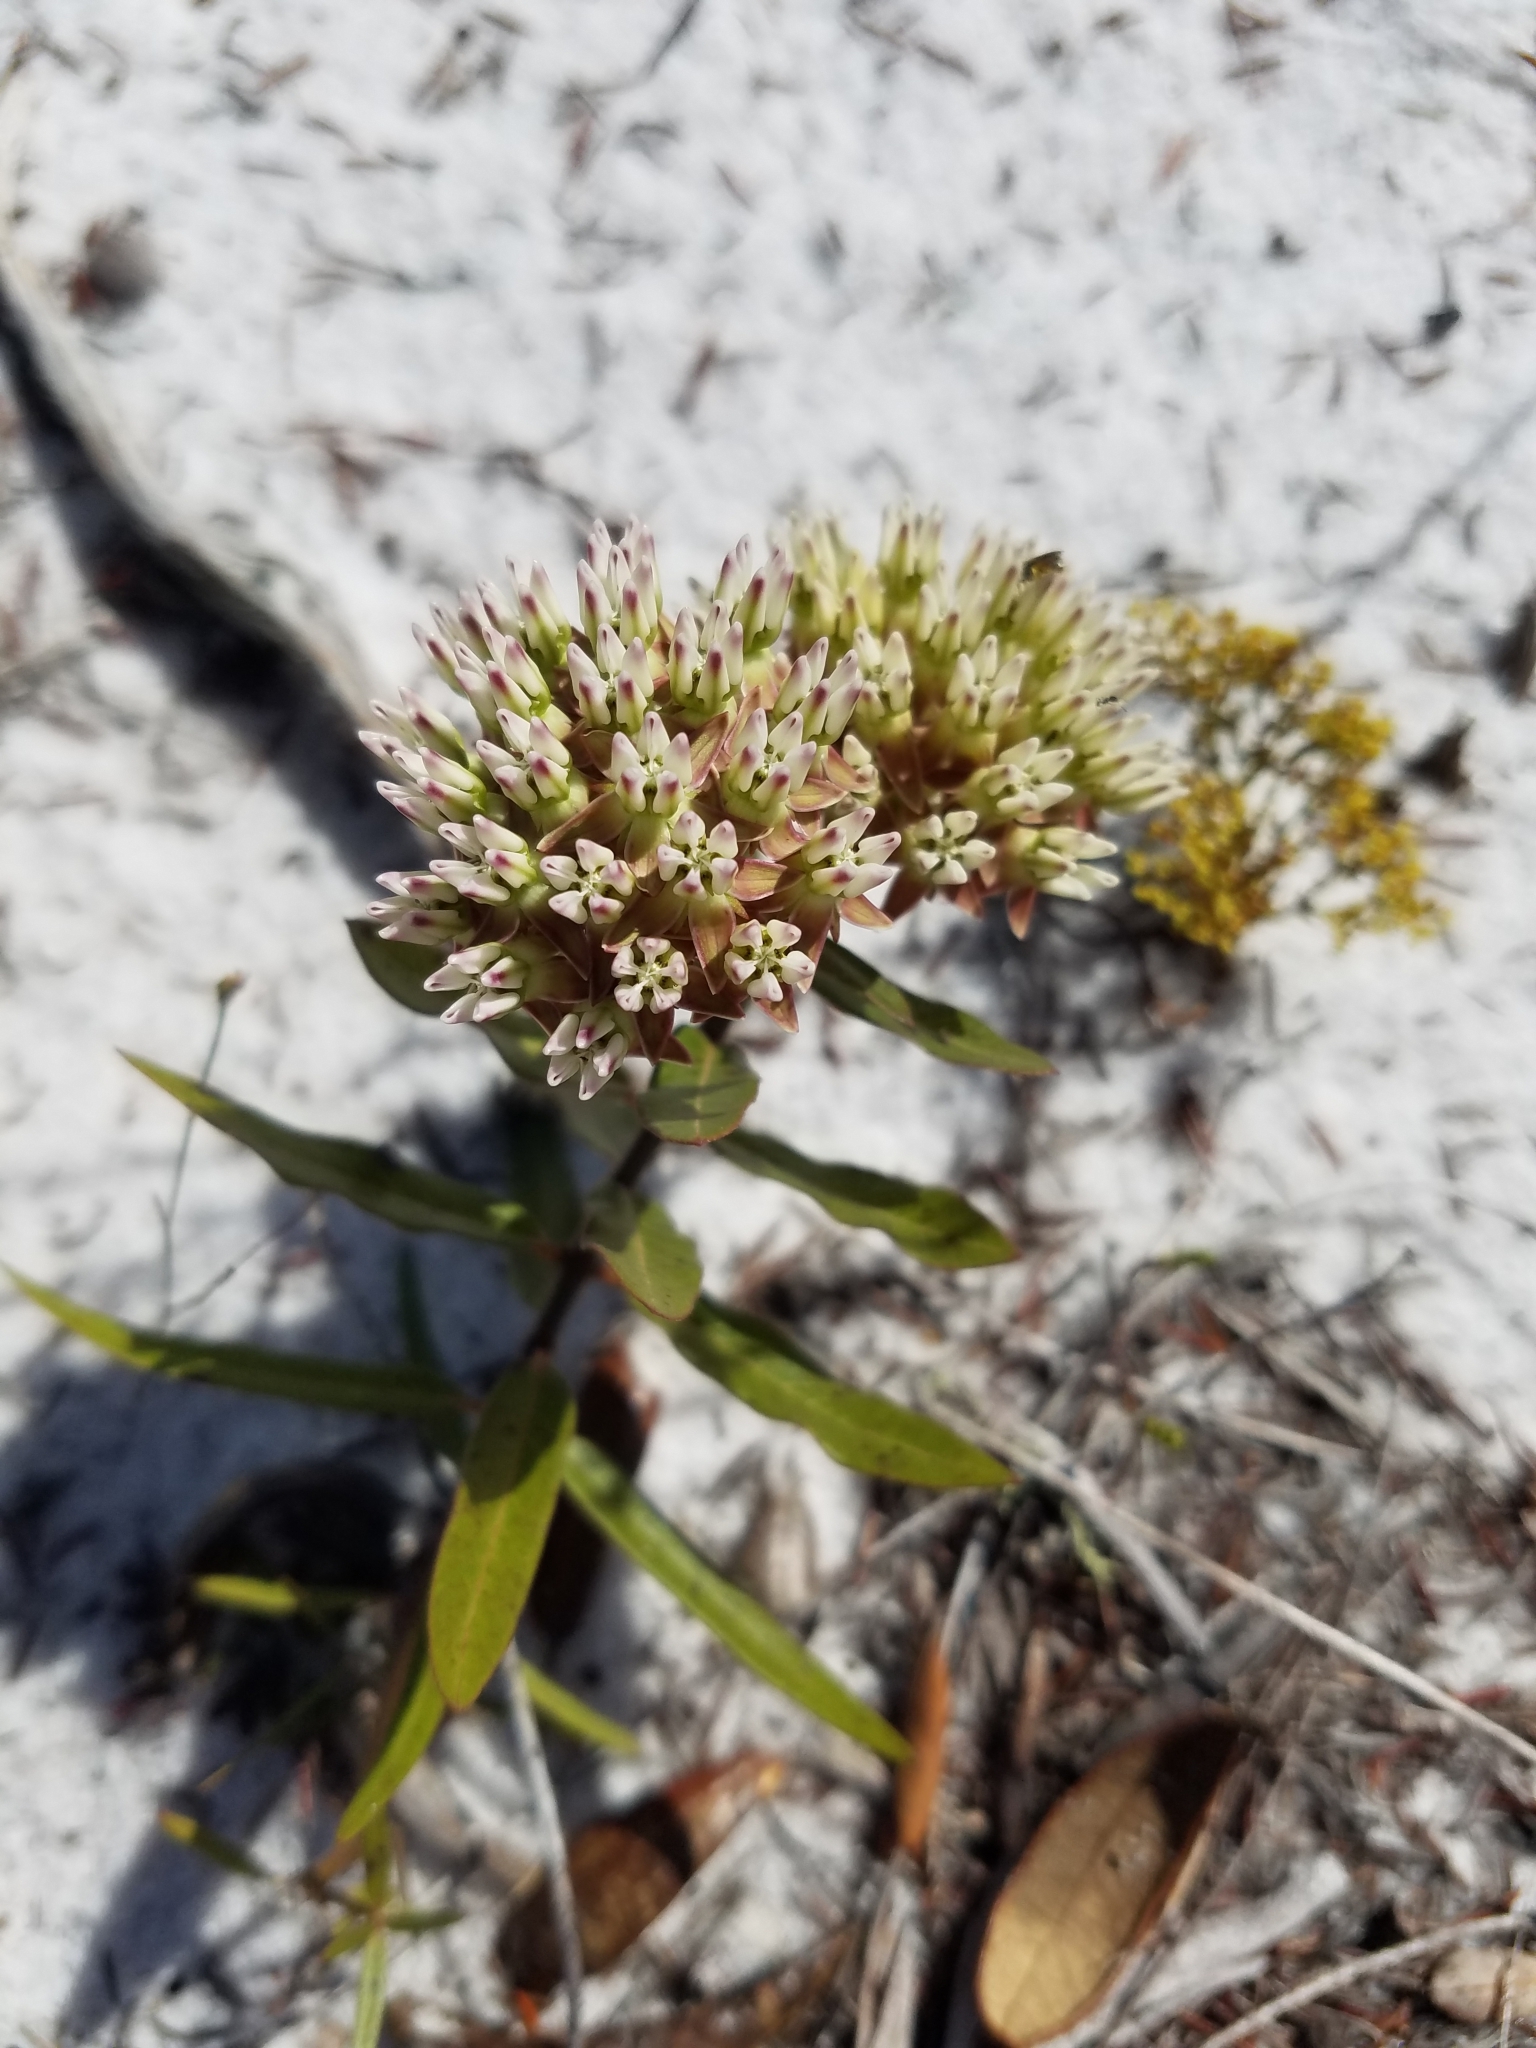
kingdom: Plantae
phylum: Tracheophyta
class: Magnoliopsida
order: Gentianales
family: Apocynaceae
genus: Asclepias
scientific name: Asclepias curtissii
